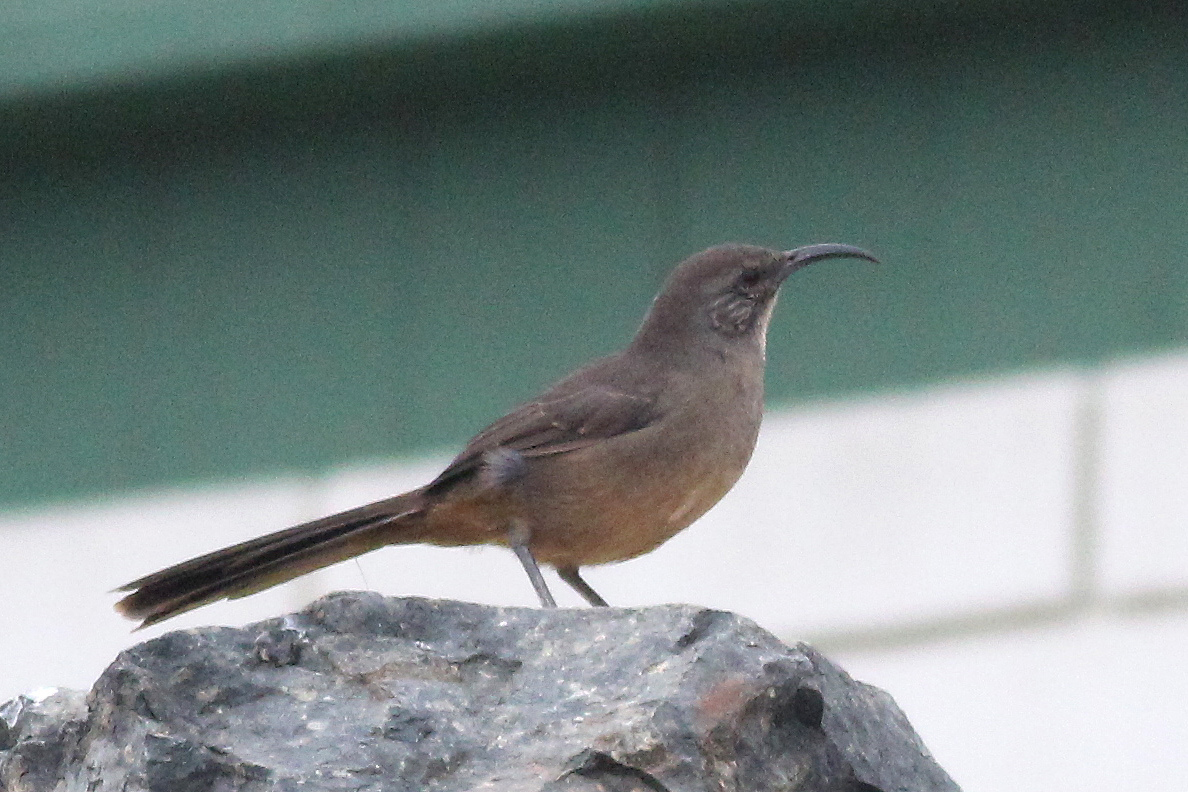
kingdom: Animalia
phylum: Chordata
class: Aves
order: Passeriformes
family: Mimidae
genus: Toxostoma
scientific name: Toxostoma redivivum
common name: California thrasher
